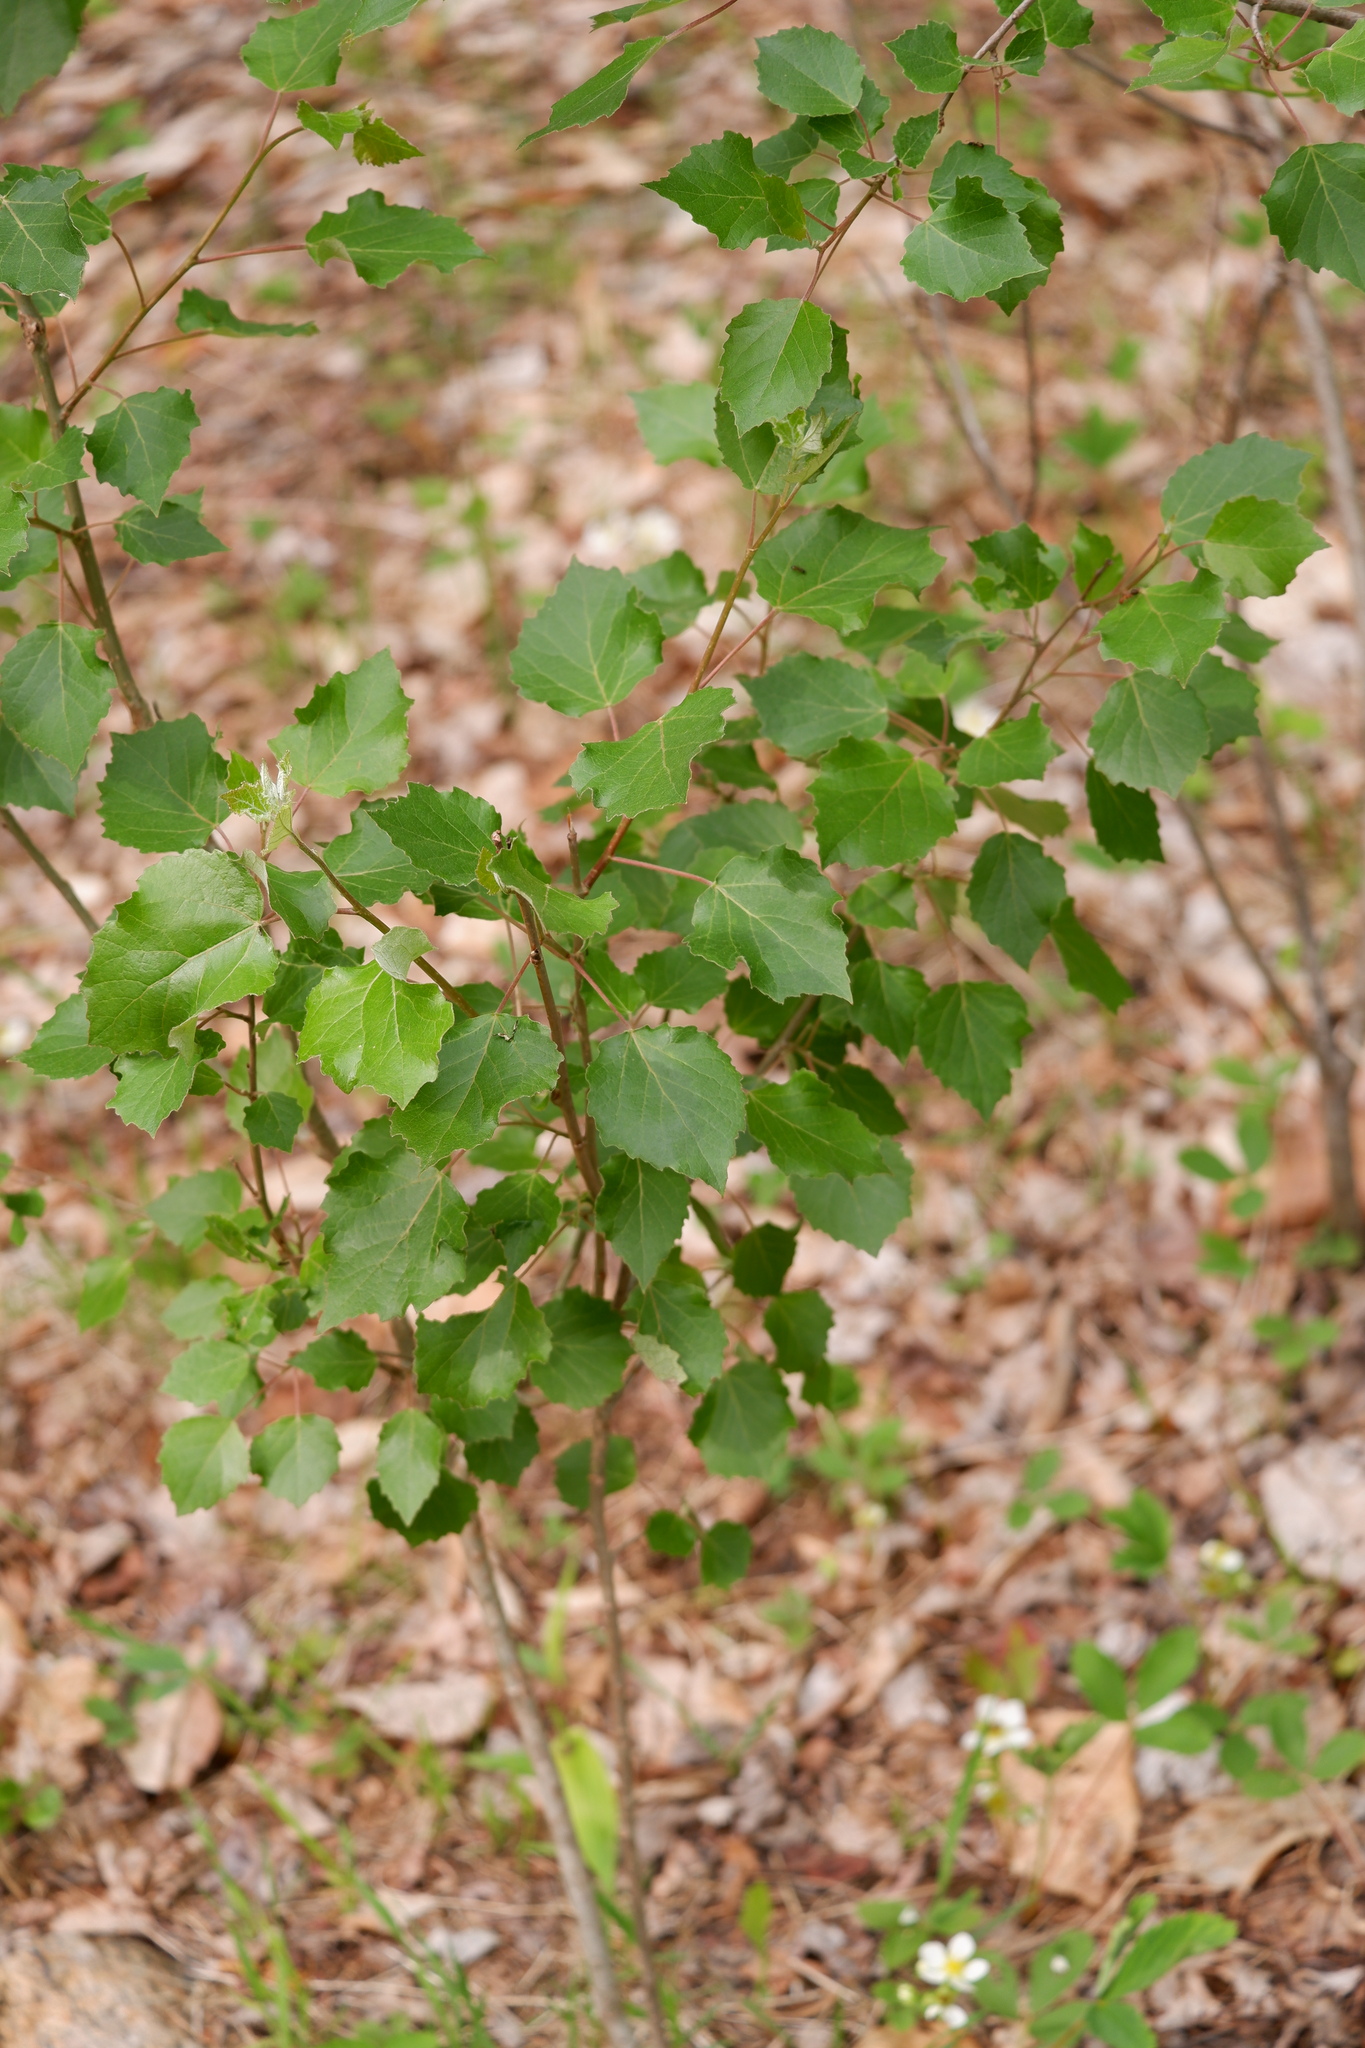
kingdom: Plantae
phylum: Tracheophyta
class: Magnoliopsida
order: Malpighiales
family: Salicaceae
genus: Populus
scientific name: Populus grandidentata
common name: Bigtooth aspen
